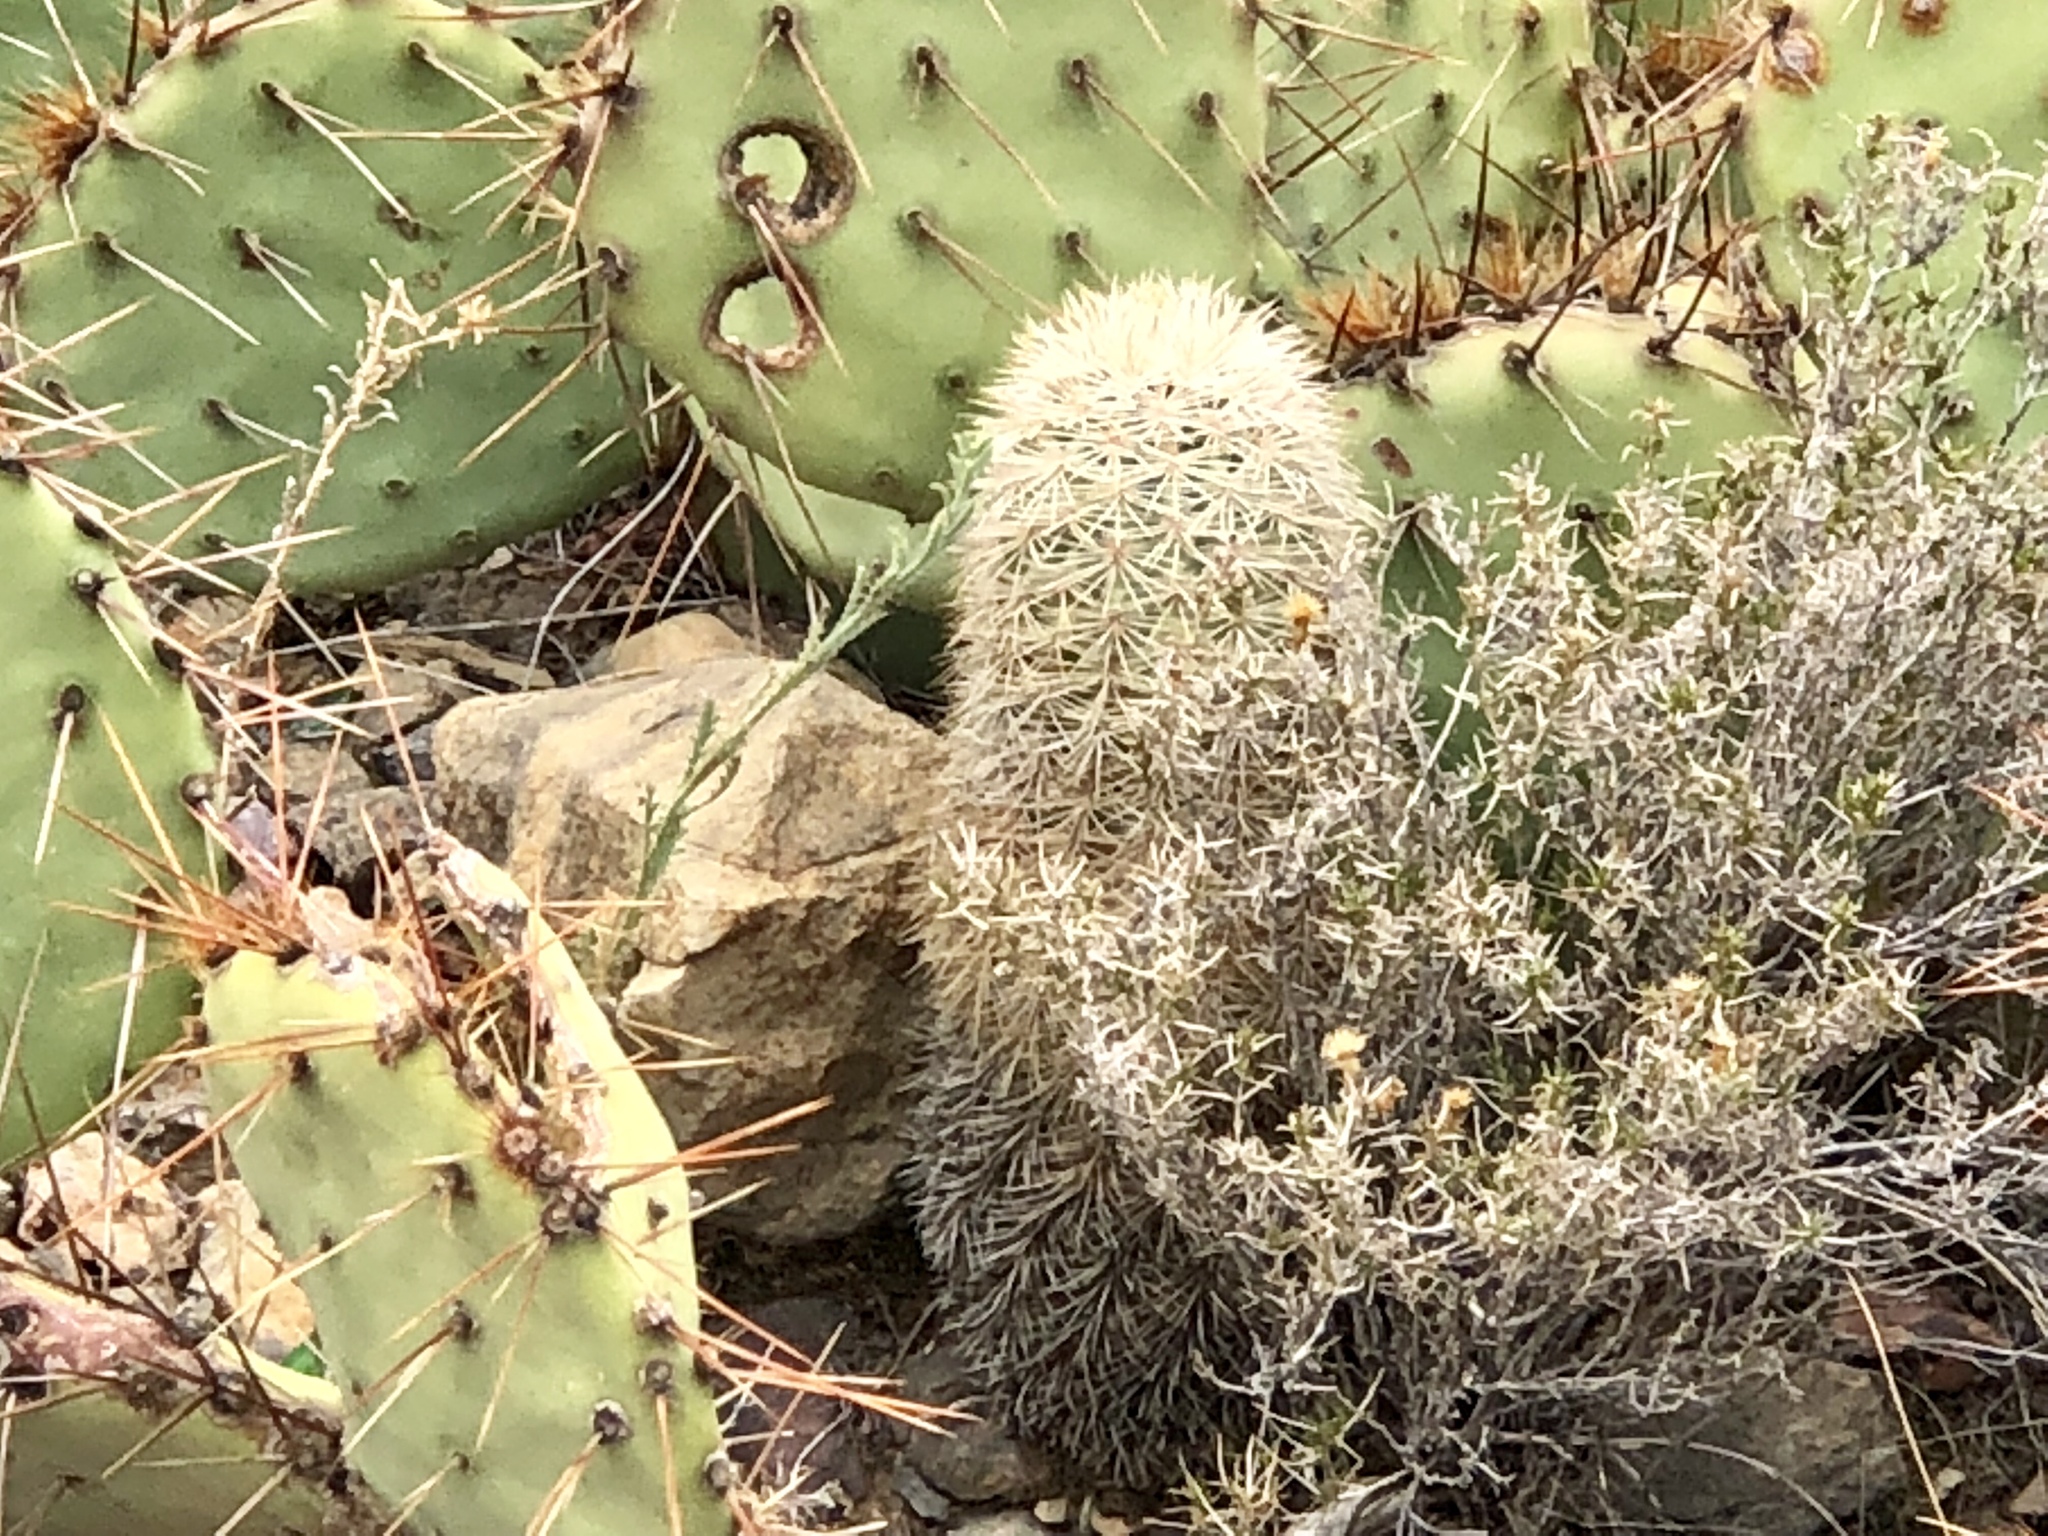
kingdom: Plantae
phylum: Tracheophyta
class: Magnoliopsida
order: Caryophyllales
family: Cactaceae
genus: Echinocereus
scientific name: Echinocereus dasyacanthus
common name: Spiny hedgehog cactus
